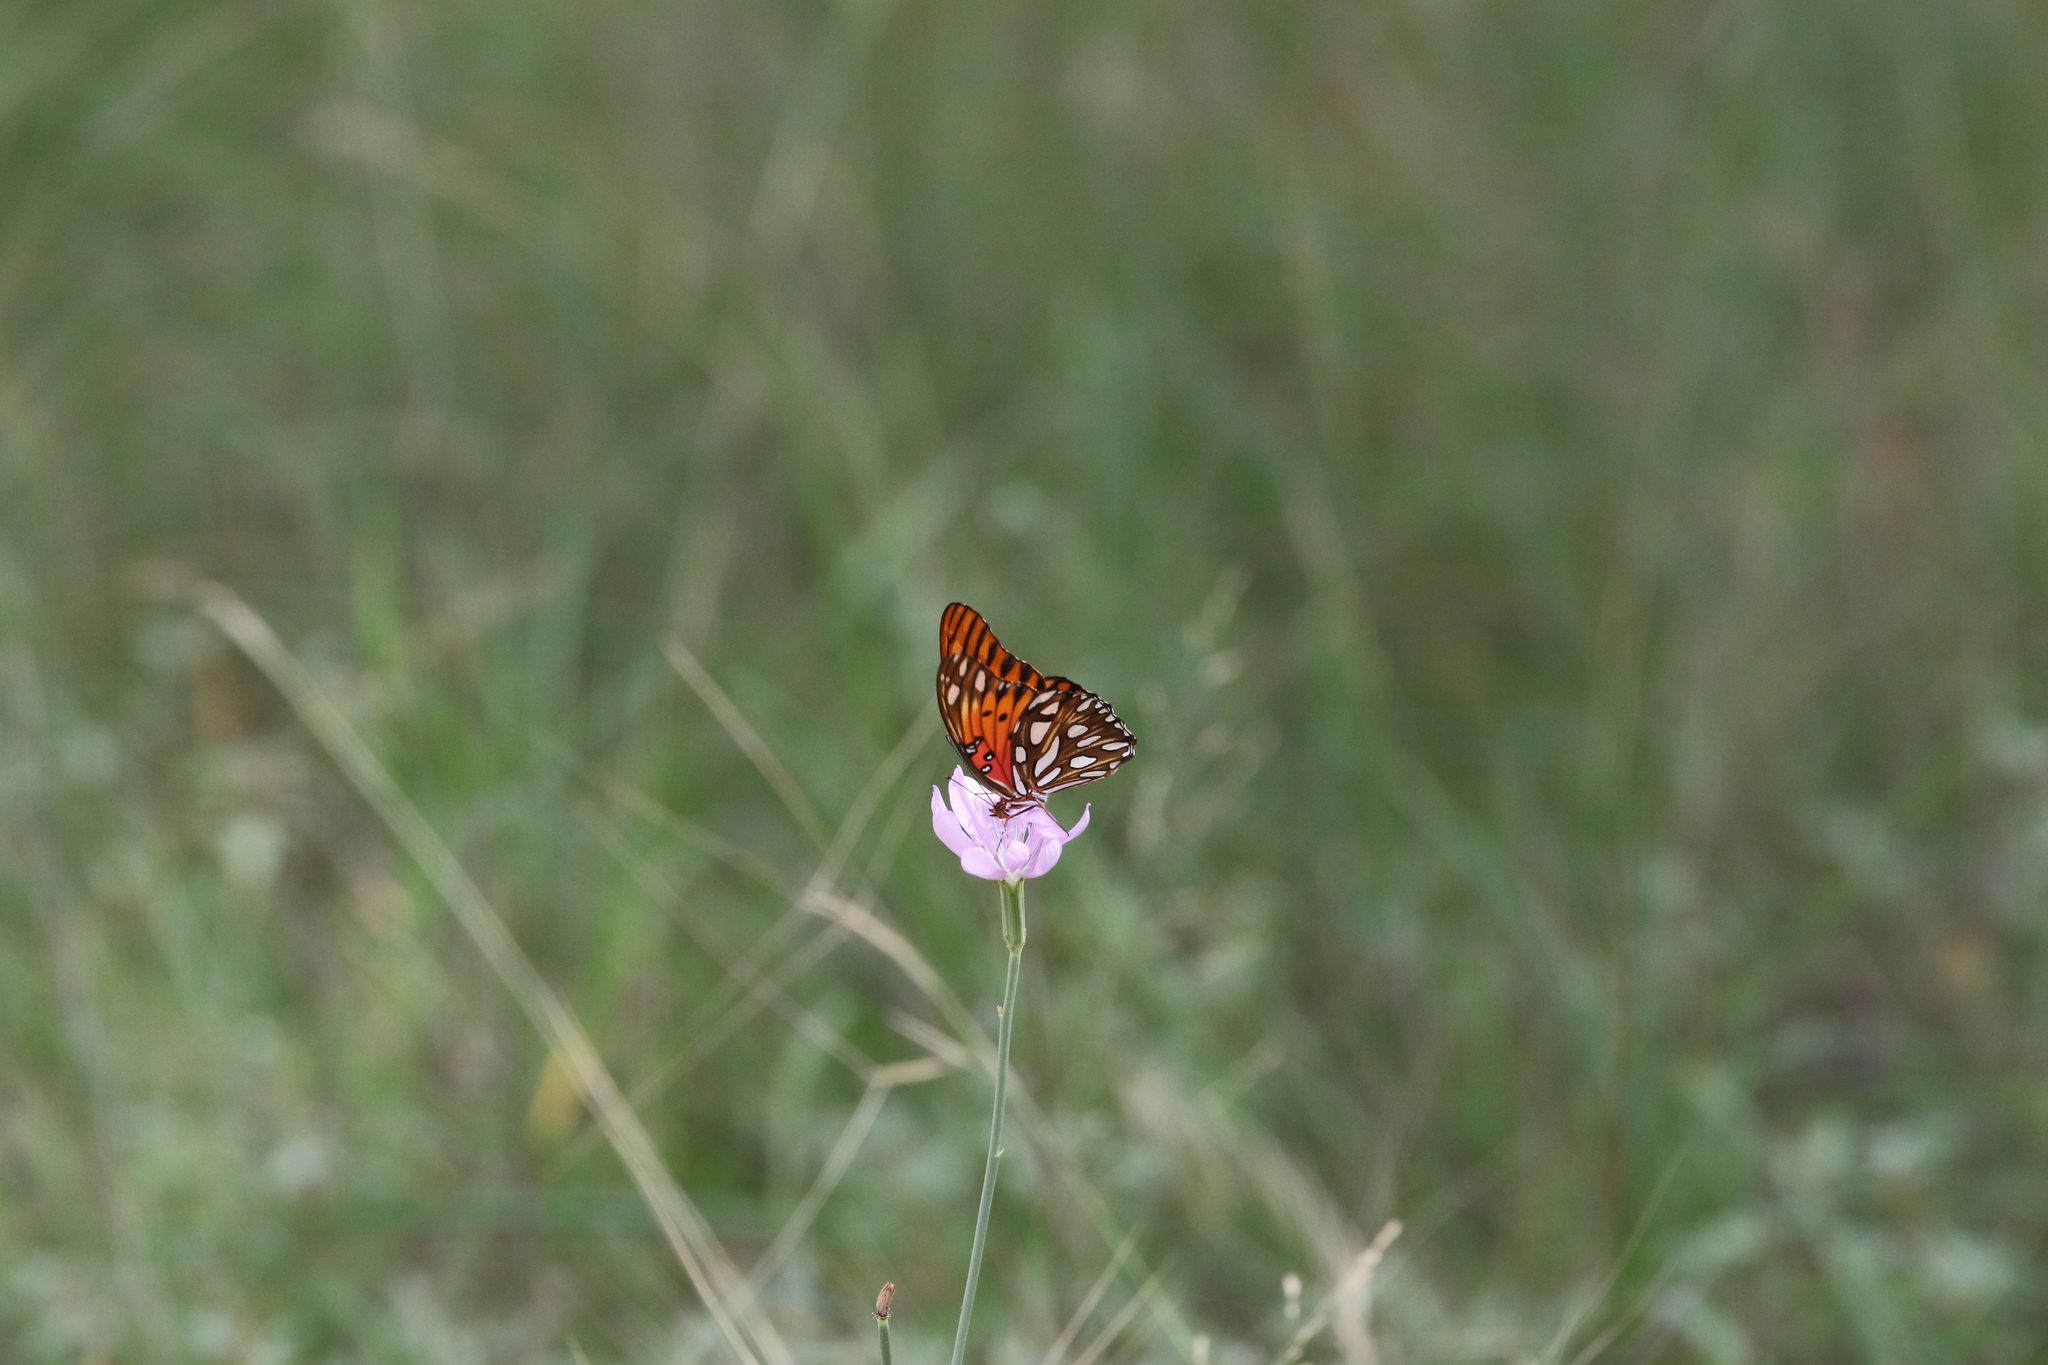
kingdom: Animalia
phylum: Arthropoda
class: Insecta
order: Lepidoptera
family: Nymphalidae
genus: Dione
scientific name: Dione vanillae
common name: Gulf fritillary
